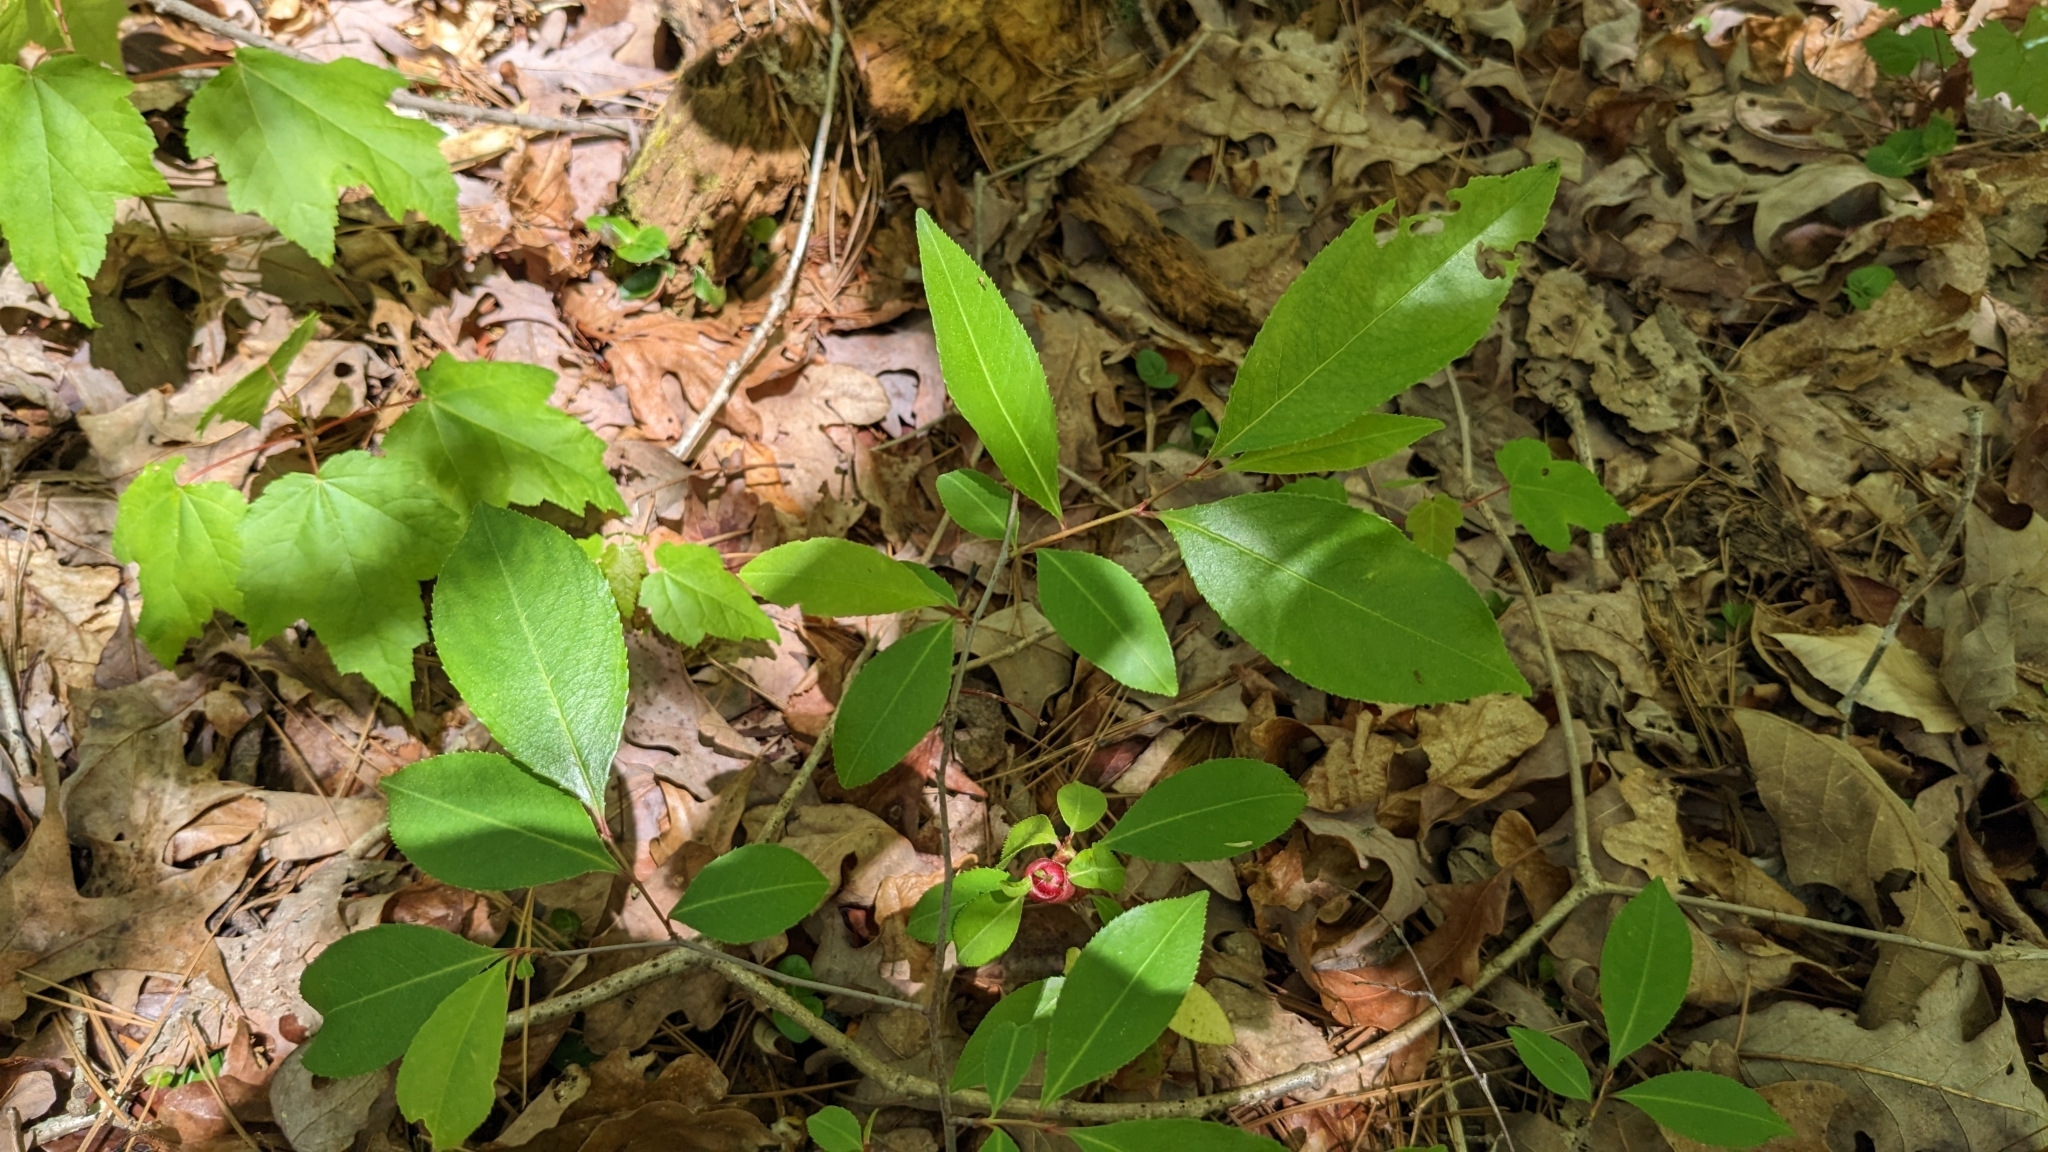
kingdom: Animalia
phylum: Arthropoda
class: Insecta
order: Diptera
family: Cecidomyiidae
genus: Contarinia
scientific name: Contarinia cerasiserotinae
